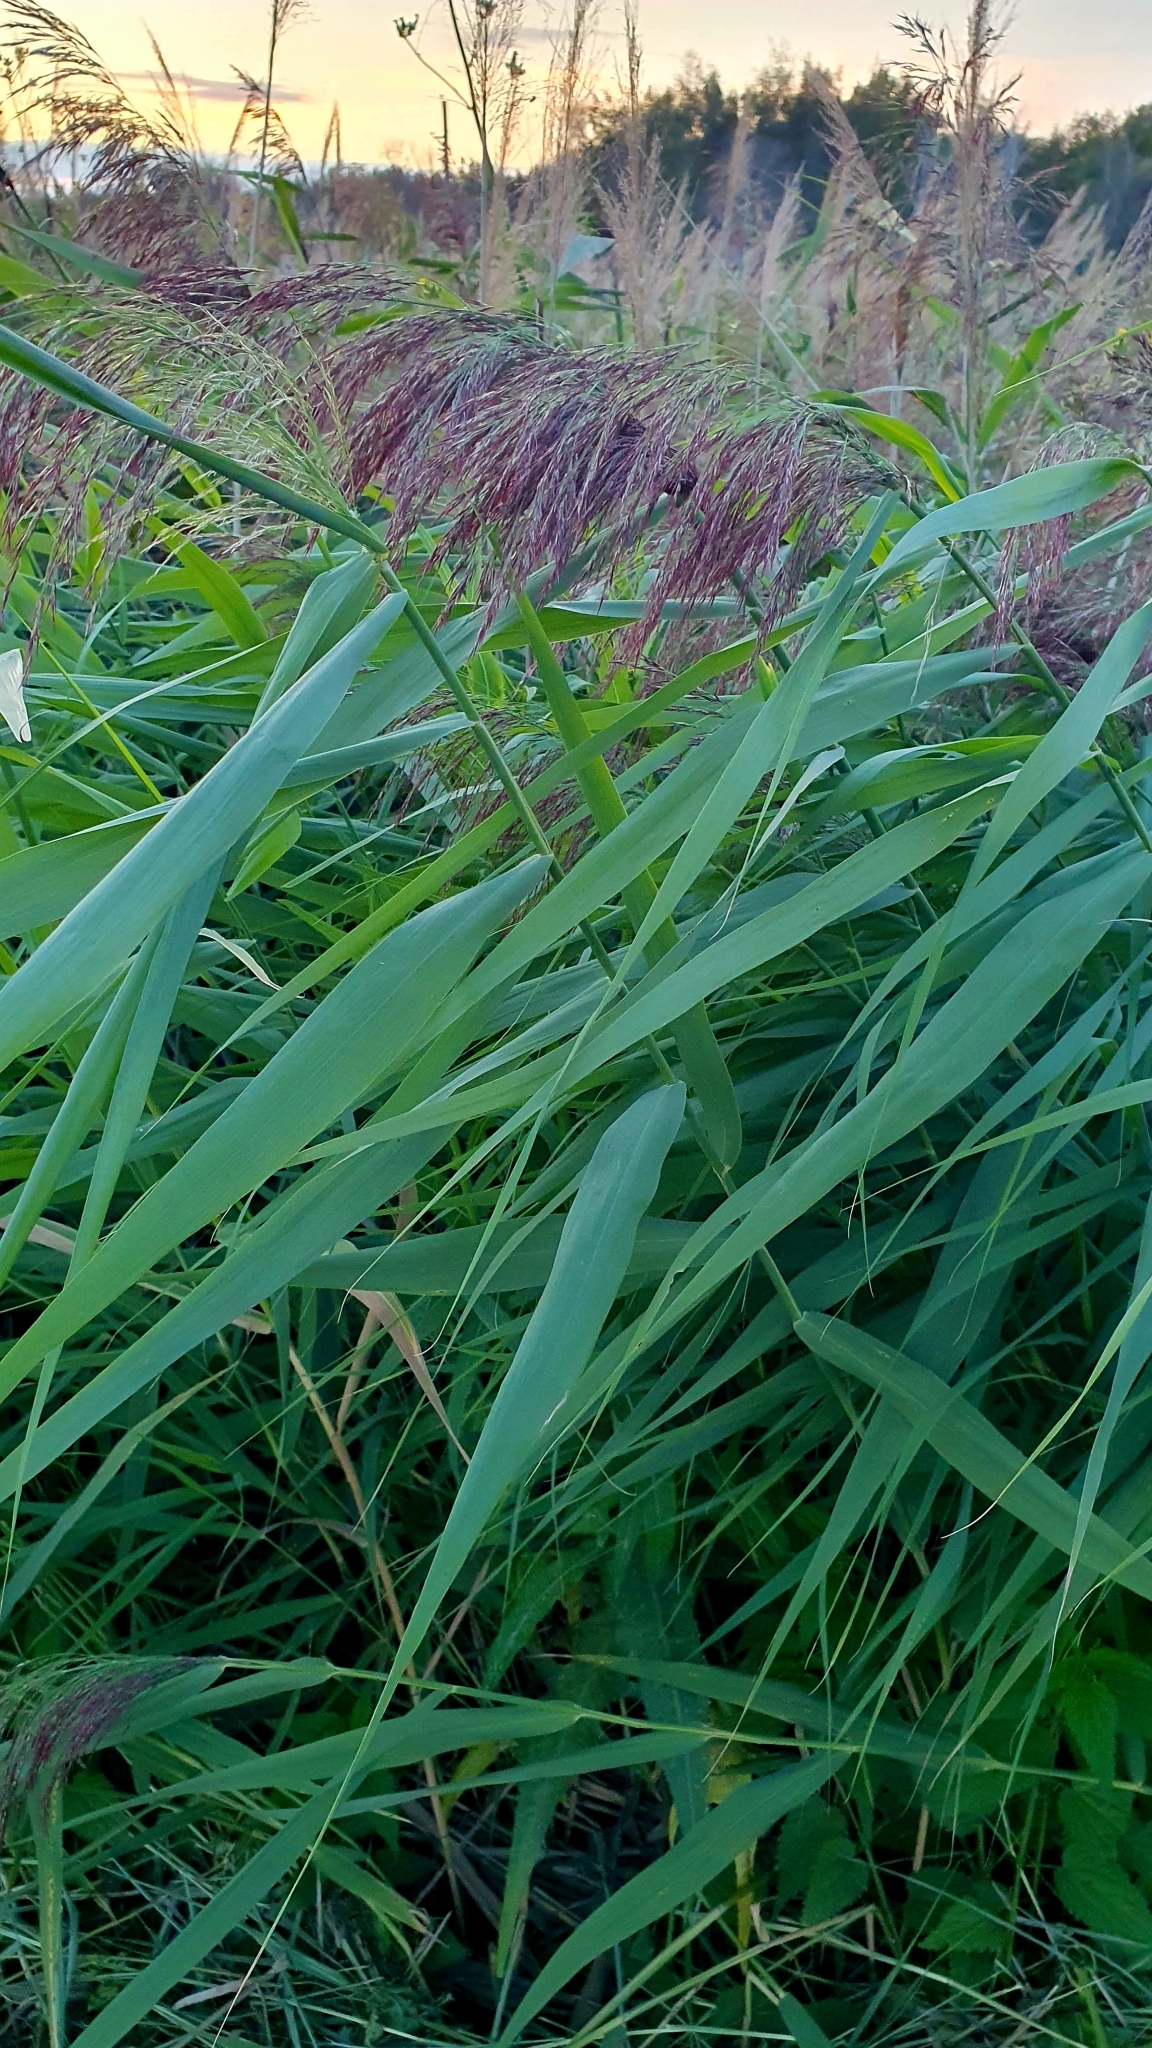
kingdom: Plantae
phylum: Tracheophyta
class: Liliopsida
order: Poales
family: Poaceae
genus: Phragmites
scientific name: Phragmites australis
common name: Common reed
